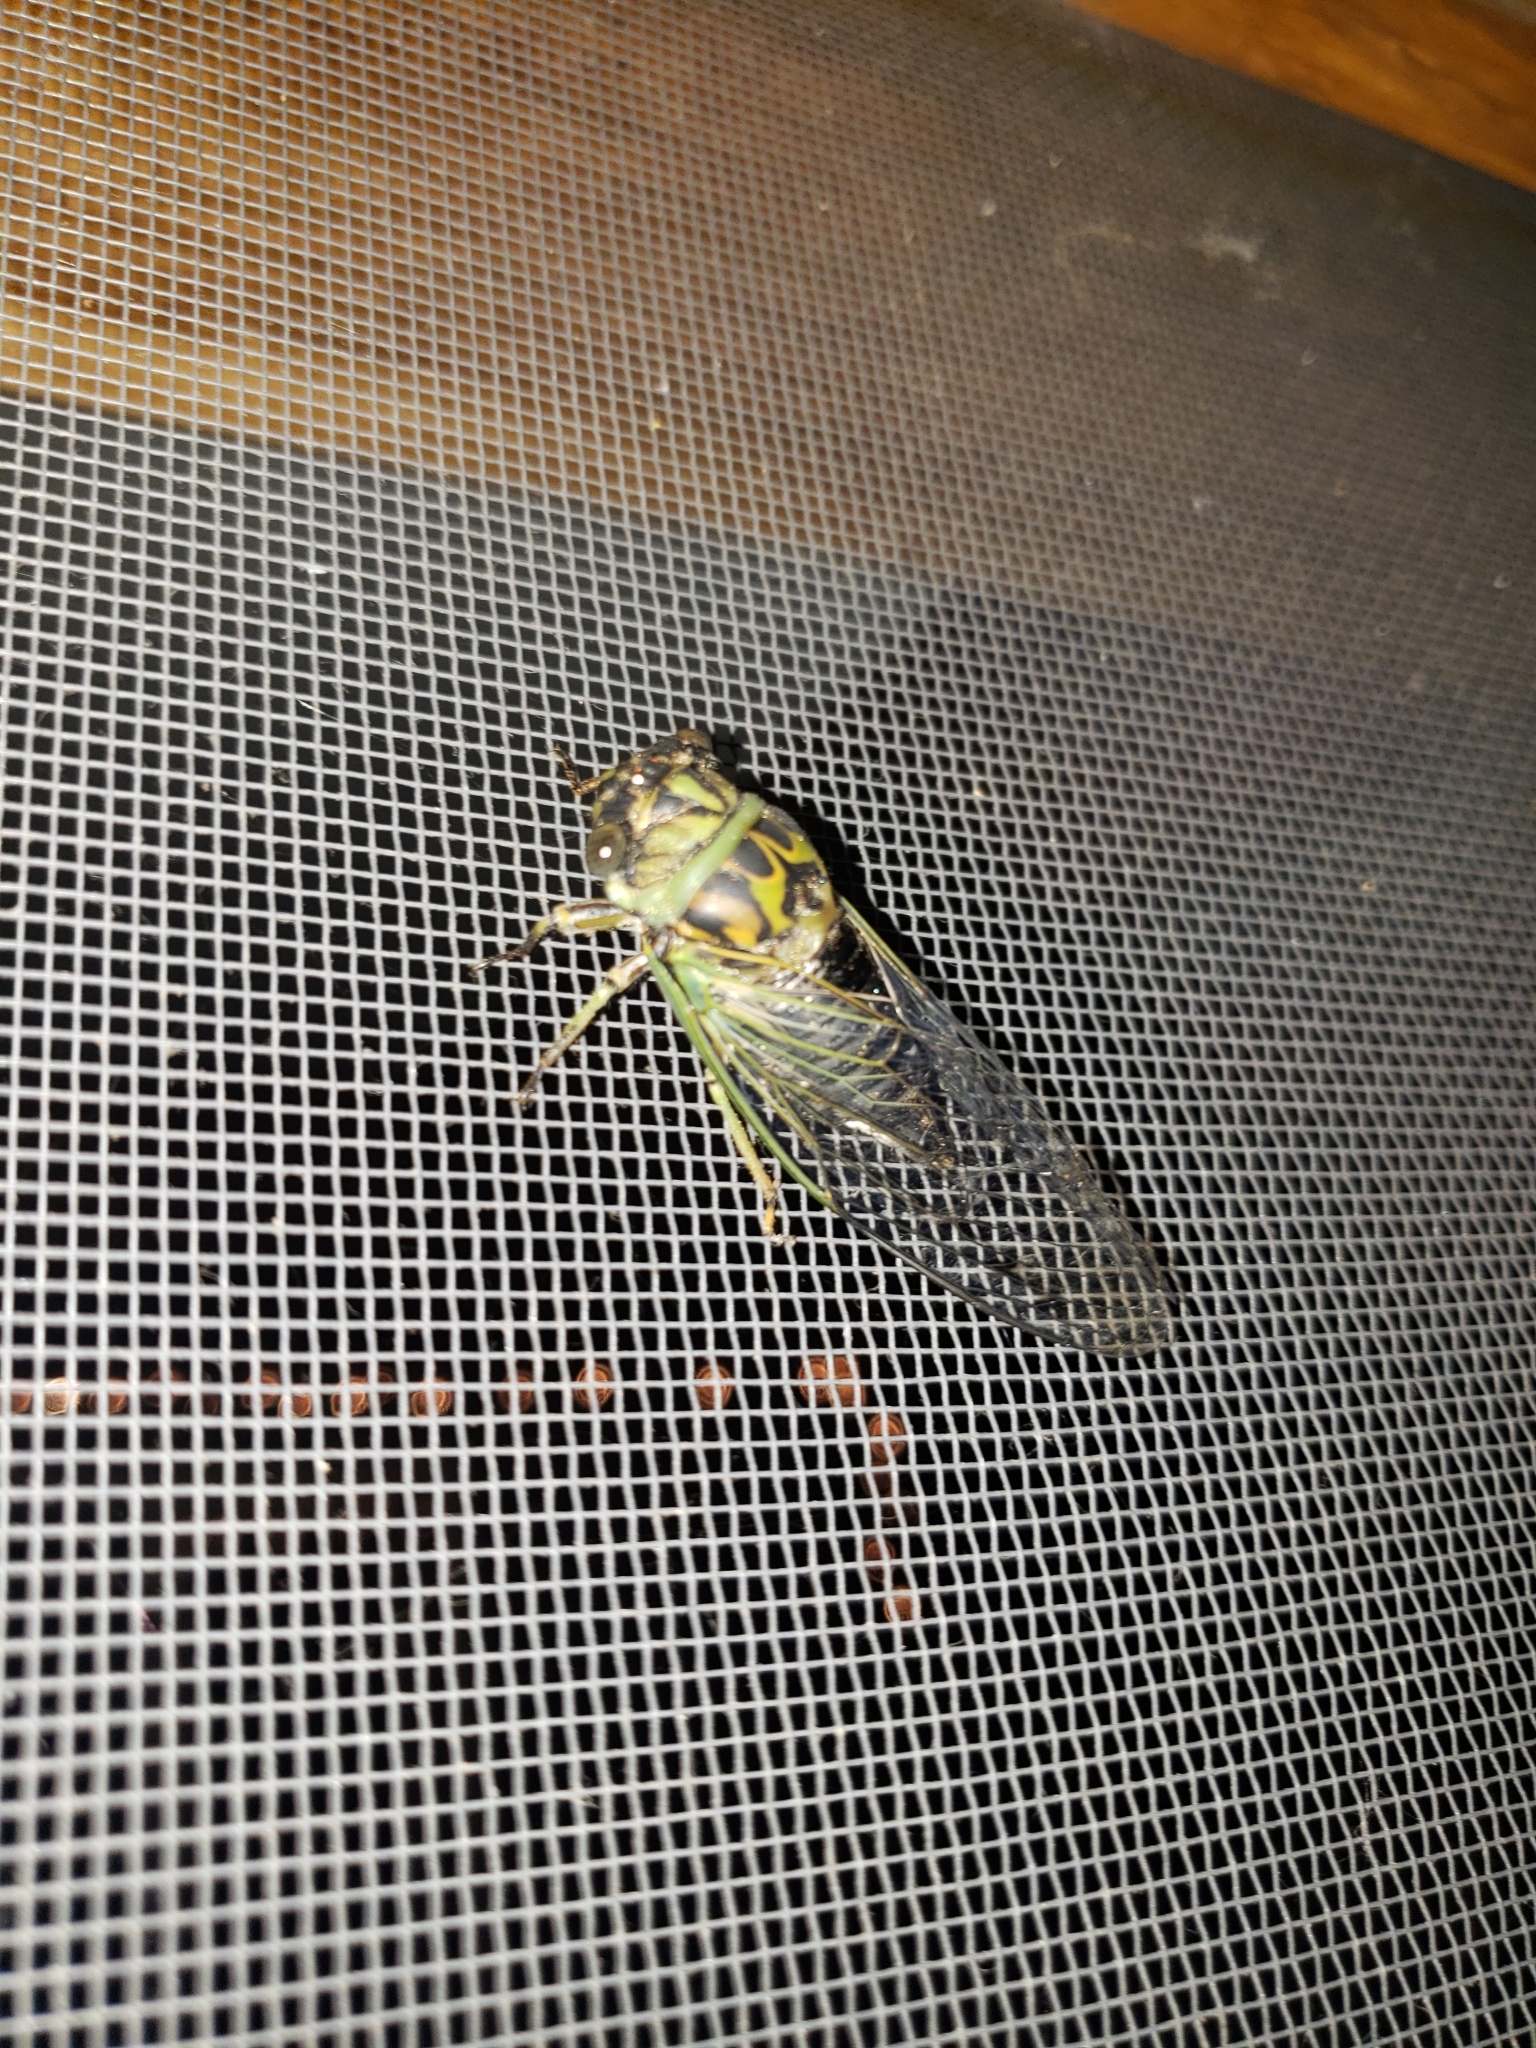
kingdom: Animalia
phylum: Arthropoda
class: Insecta
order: Hemiptera
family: Cicadidae
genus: Neotibicen
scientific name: Neotibicen canicularis
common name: God-day cicada
